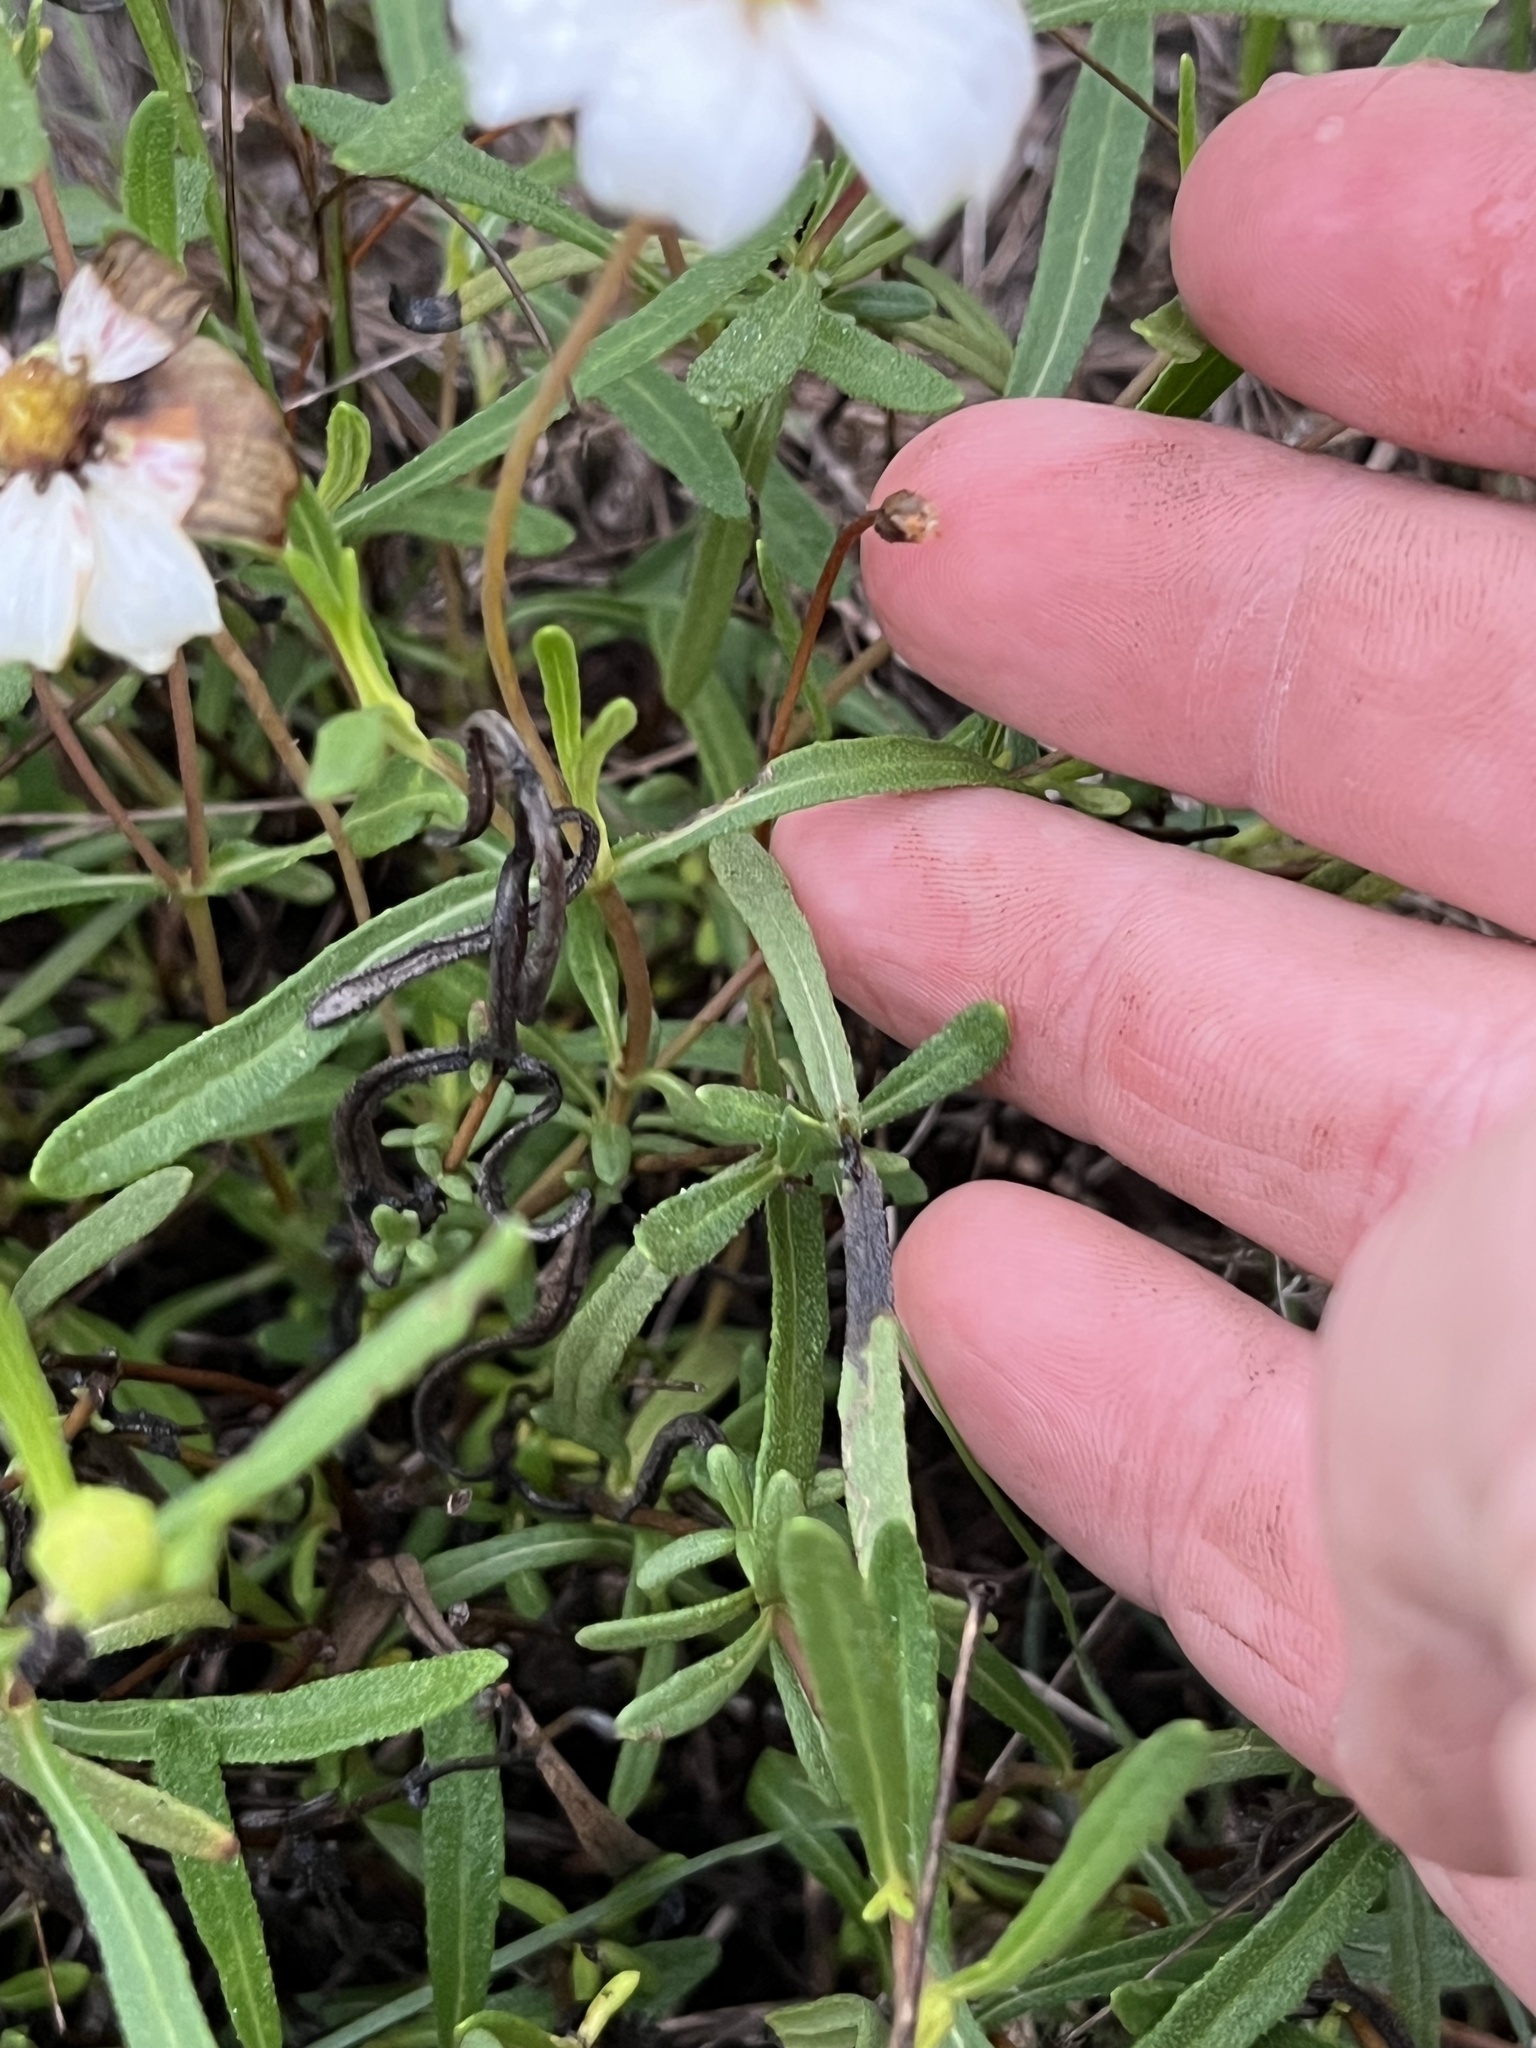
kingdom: Plantae
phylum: Tracheophyta
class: Magnoliopsida
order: Asterales
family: Asteraceae
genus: Melampodium
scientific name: Melampodium leucanthum
